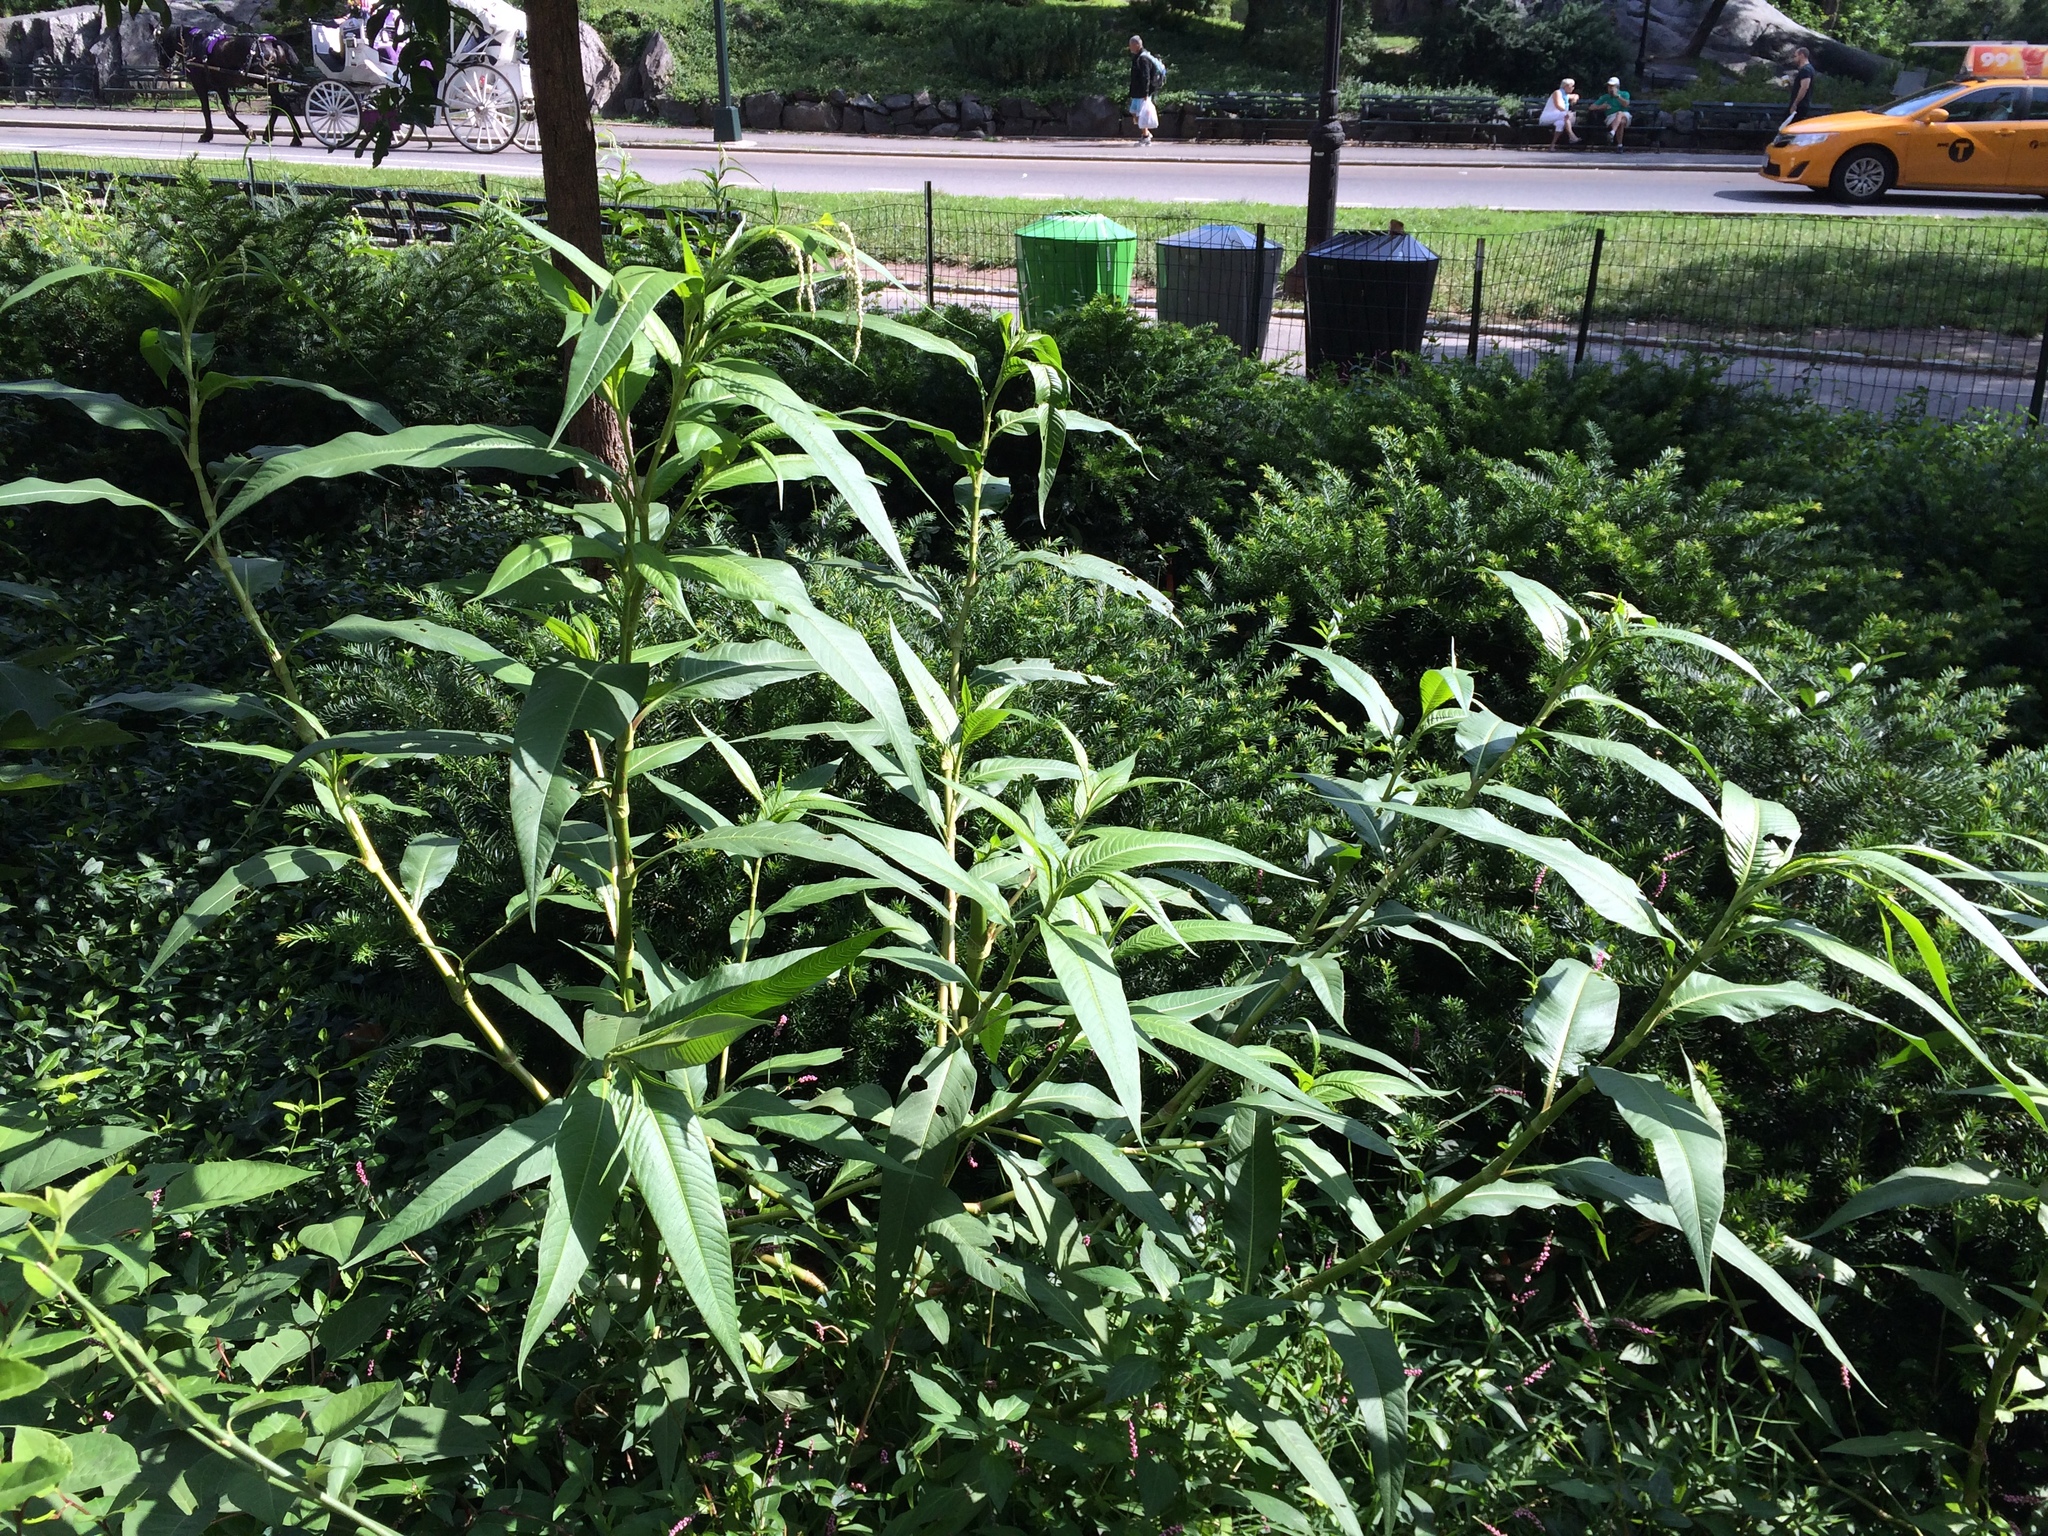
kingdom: Plantae
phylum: Tracheophyta
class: Magnoliopsida
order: Caryophyllales
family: Polygonaceae
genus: Persicaria
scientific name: Persicaria lapathifolia
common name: Curlytop knotweed
